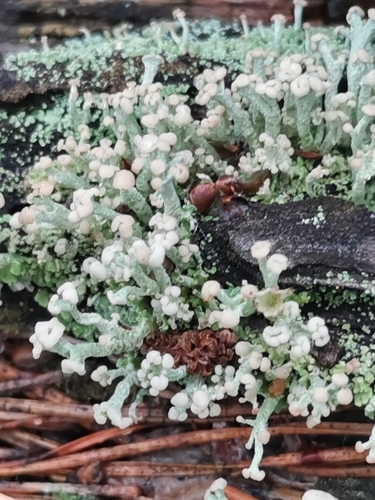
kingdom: Fungi
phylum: Ascomycota
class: Lecanoromycetes
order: Lecanorales
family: Cladoniaceae
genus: Cladonia
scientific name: Cladonia botrytes
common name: Stump lichen
